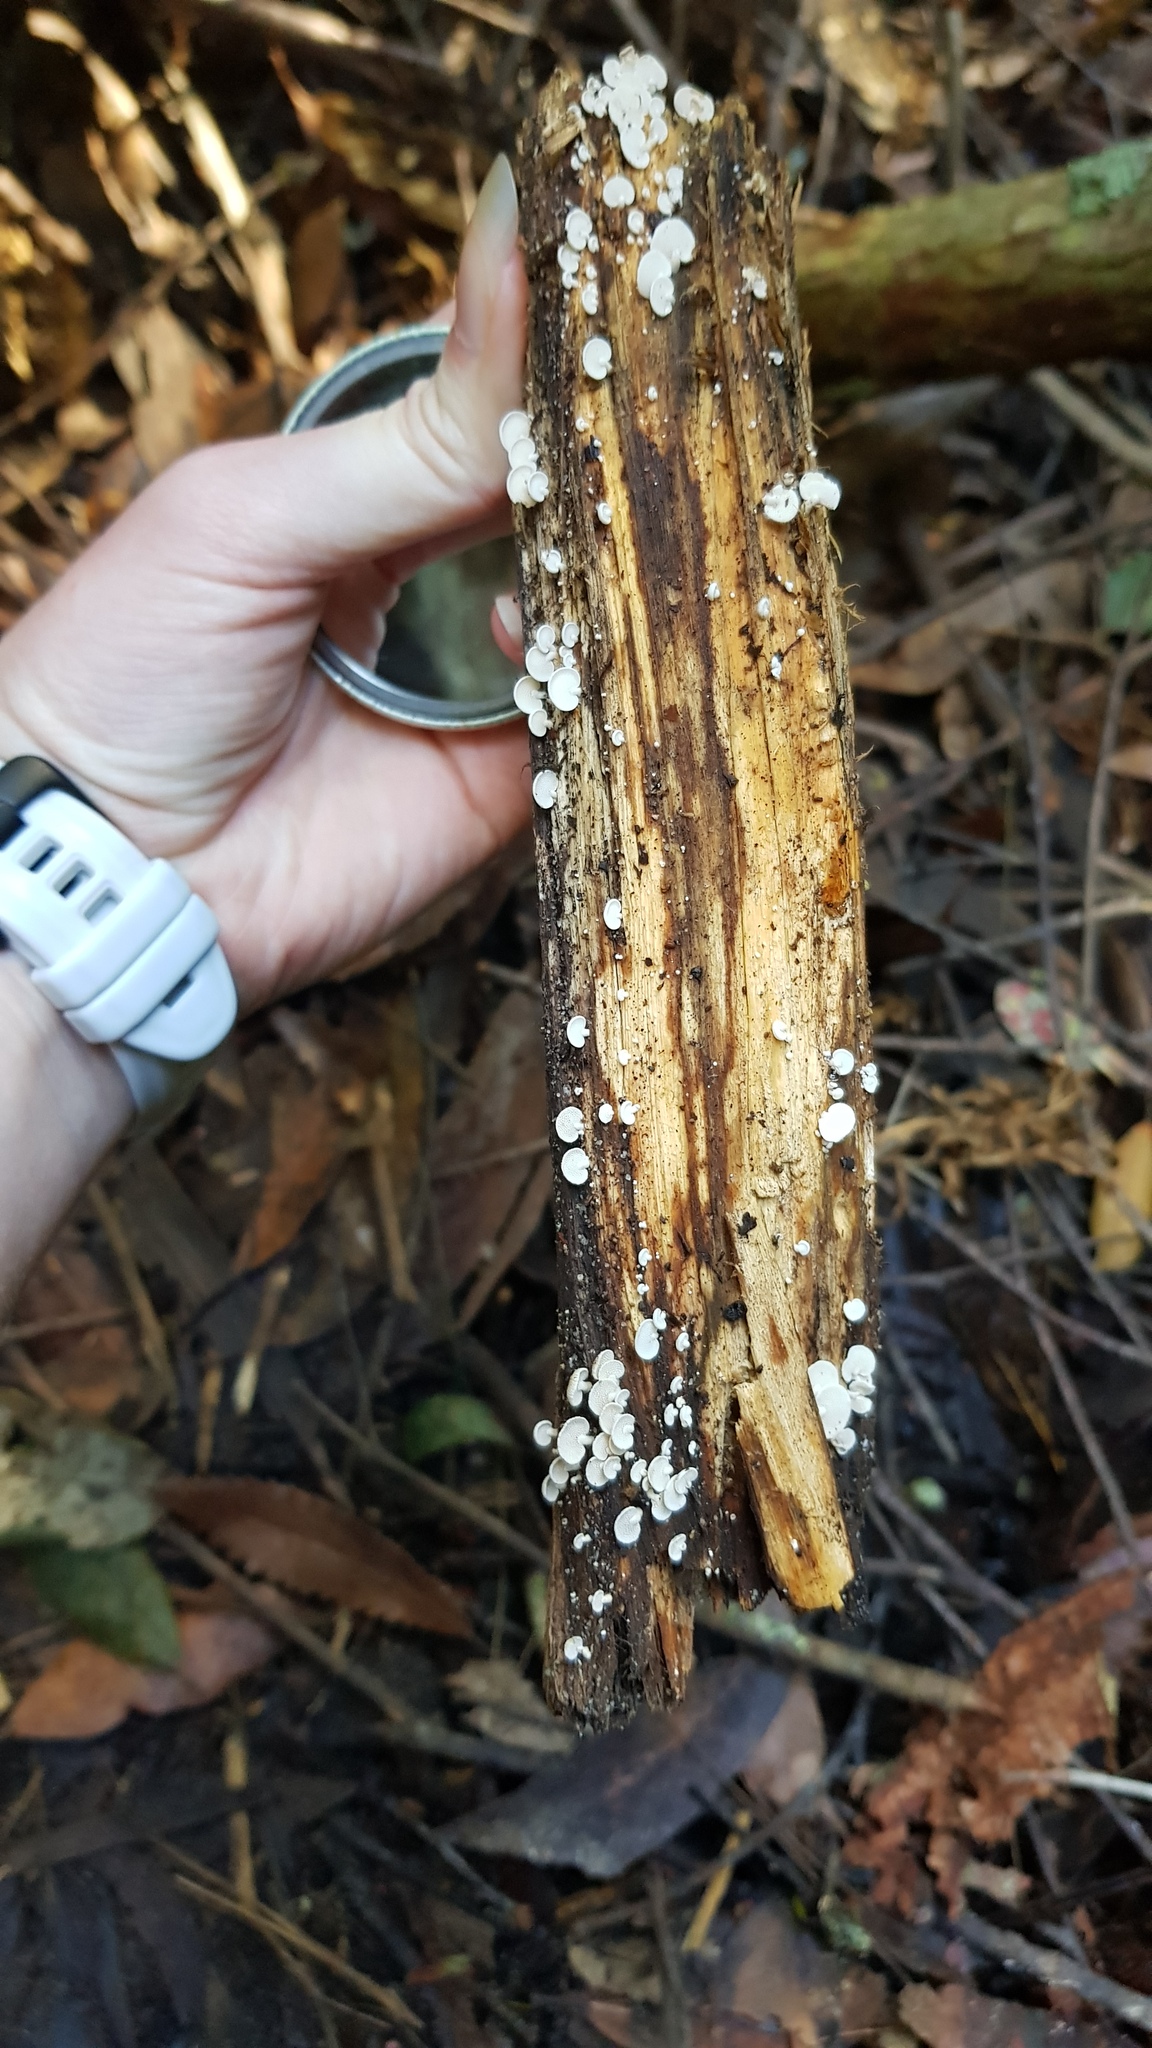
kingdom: Fungi
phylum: Basidiomycota
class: Agaricomycetes
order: Agaricales
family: Mycenaceae
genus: Panellus
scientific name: Panellus luxfilamentus
